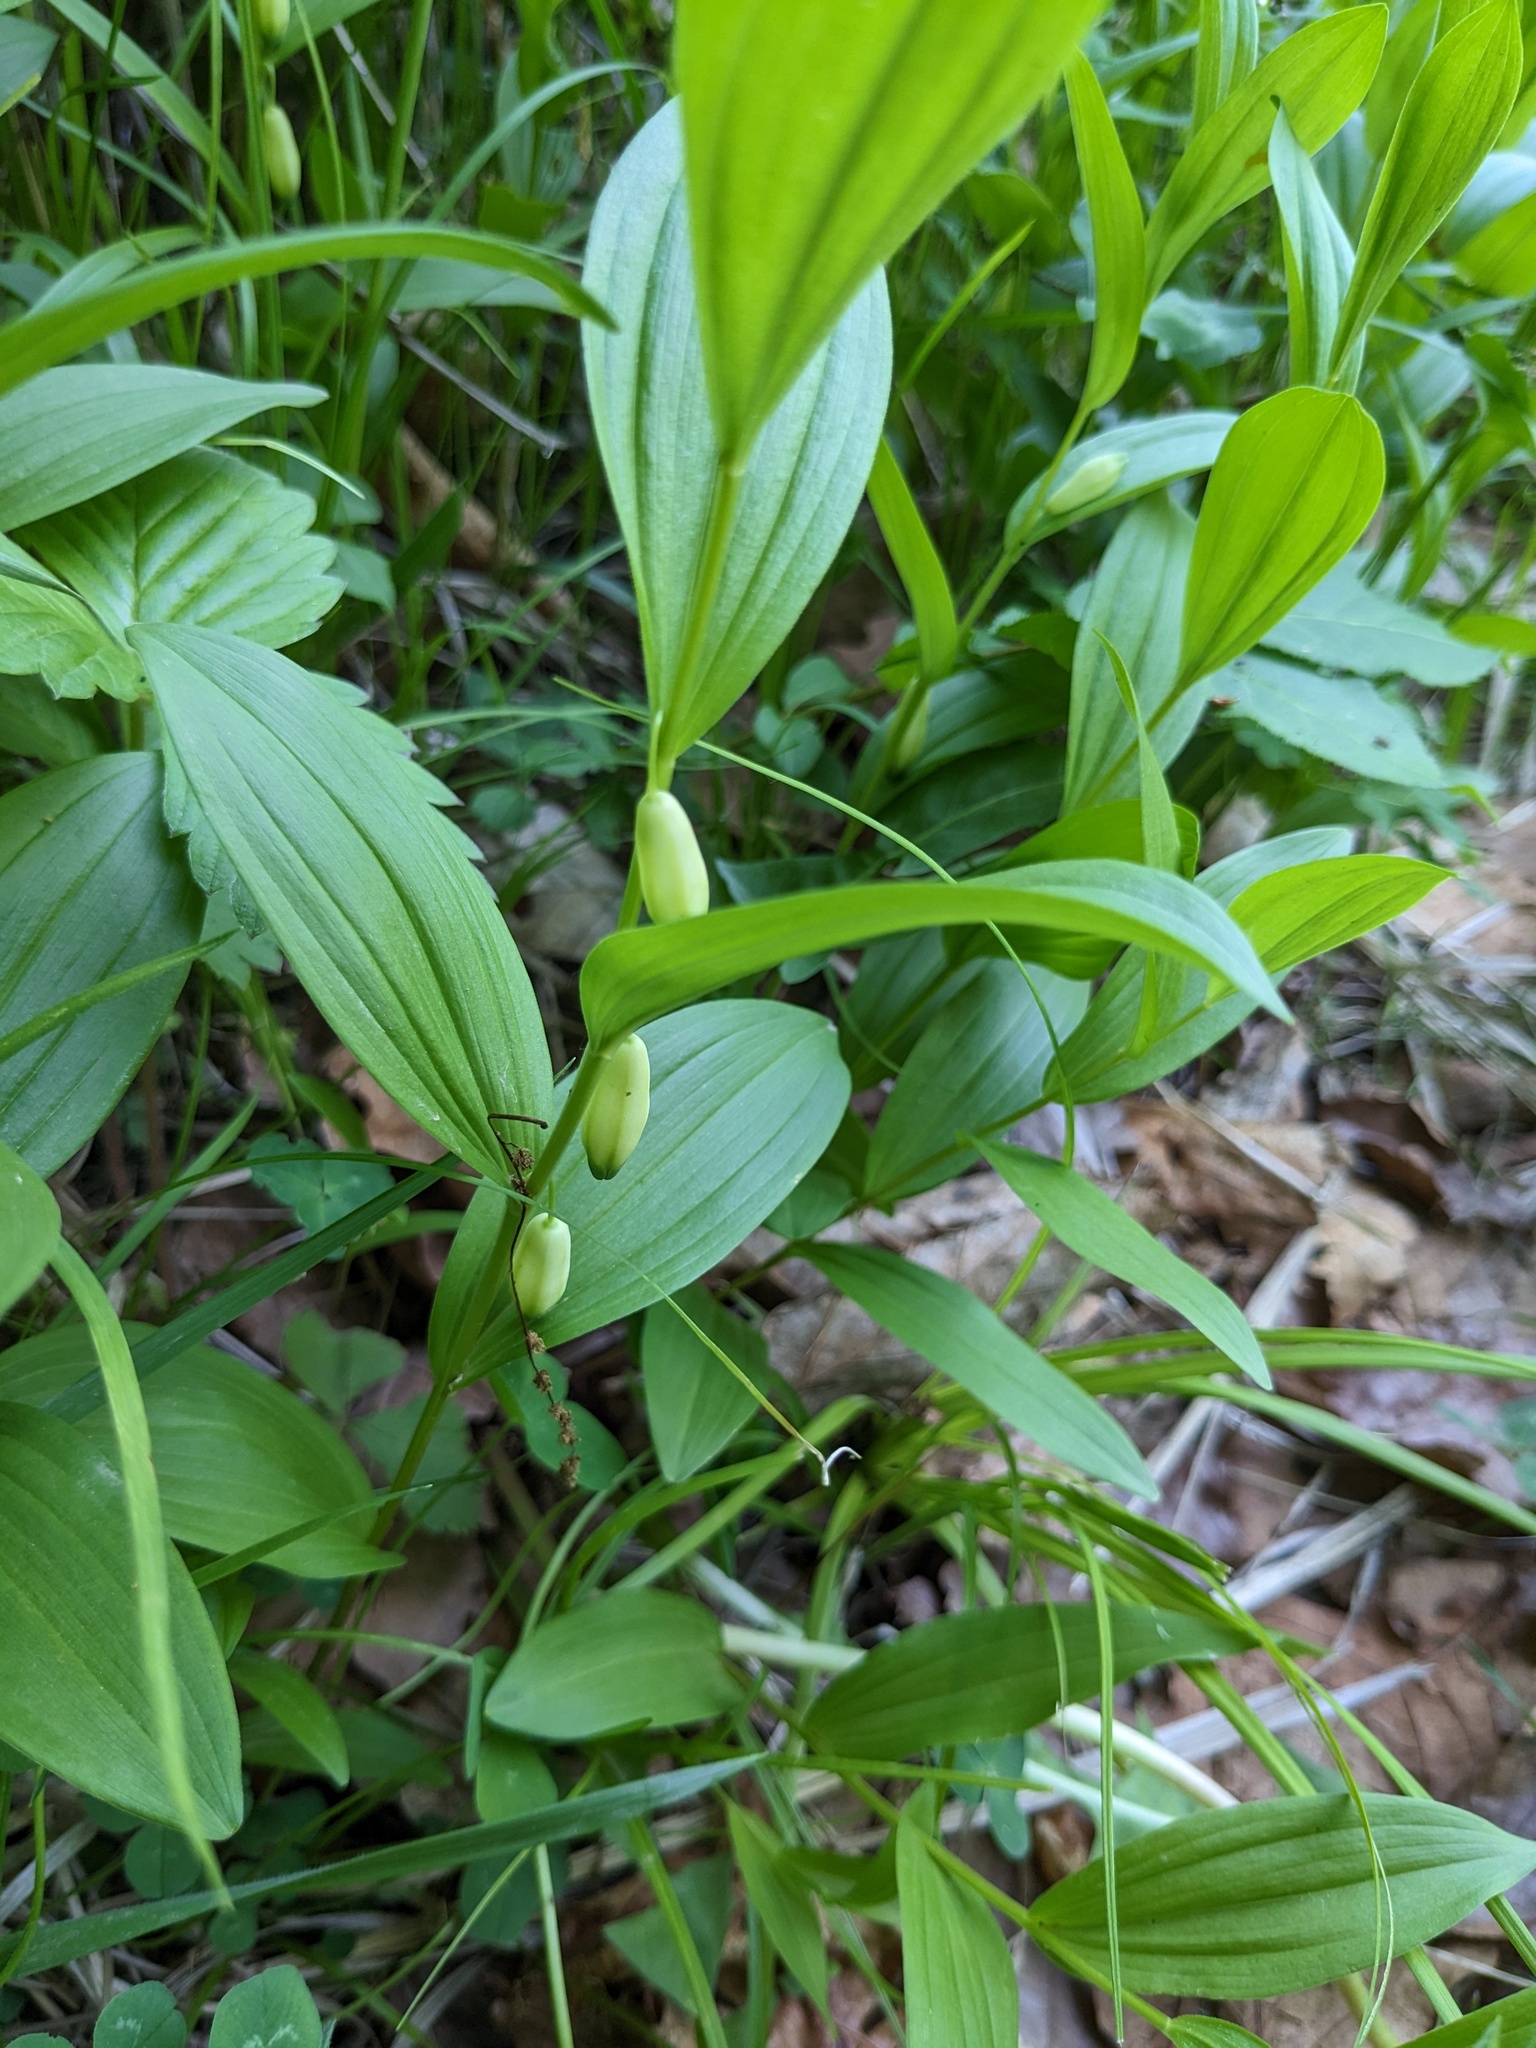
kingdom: Plantae
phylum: Tracheophyta
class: Liliopsida
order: Asparagales
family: Asparagaceae
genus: Polygonatum
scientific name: Polygonatum humile
